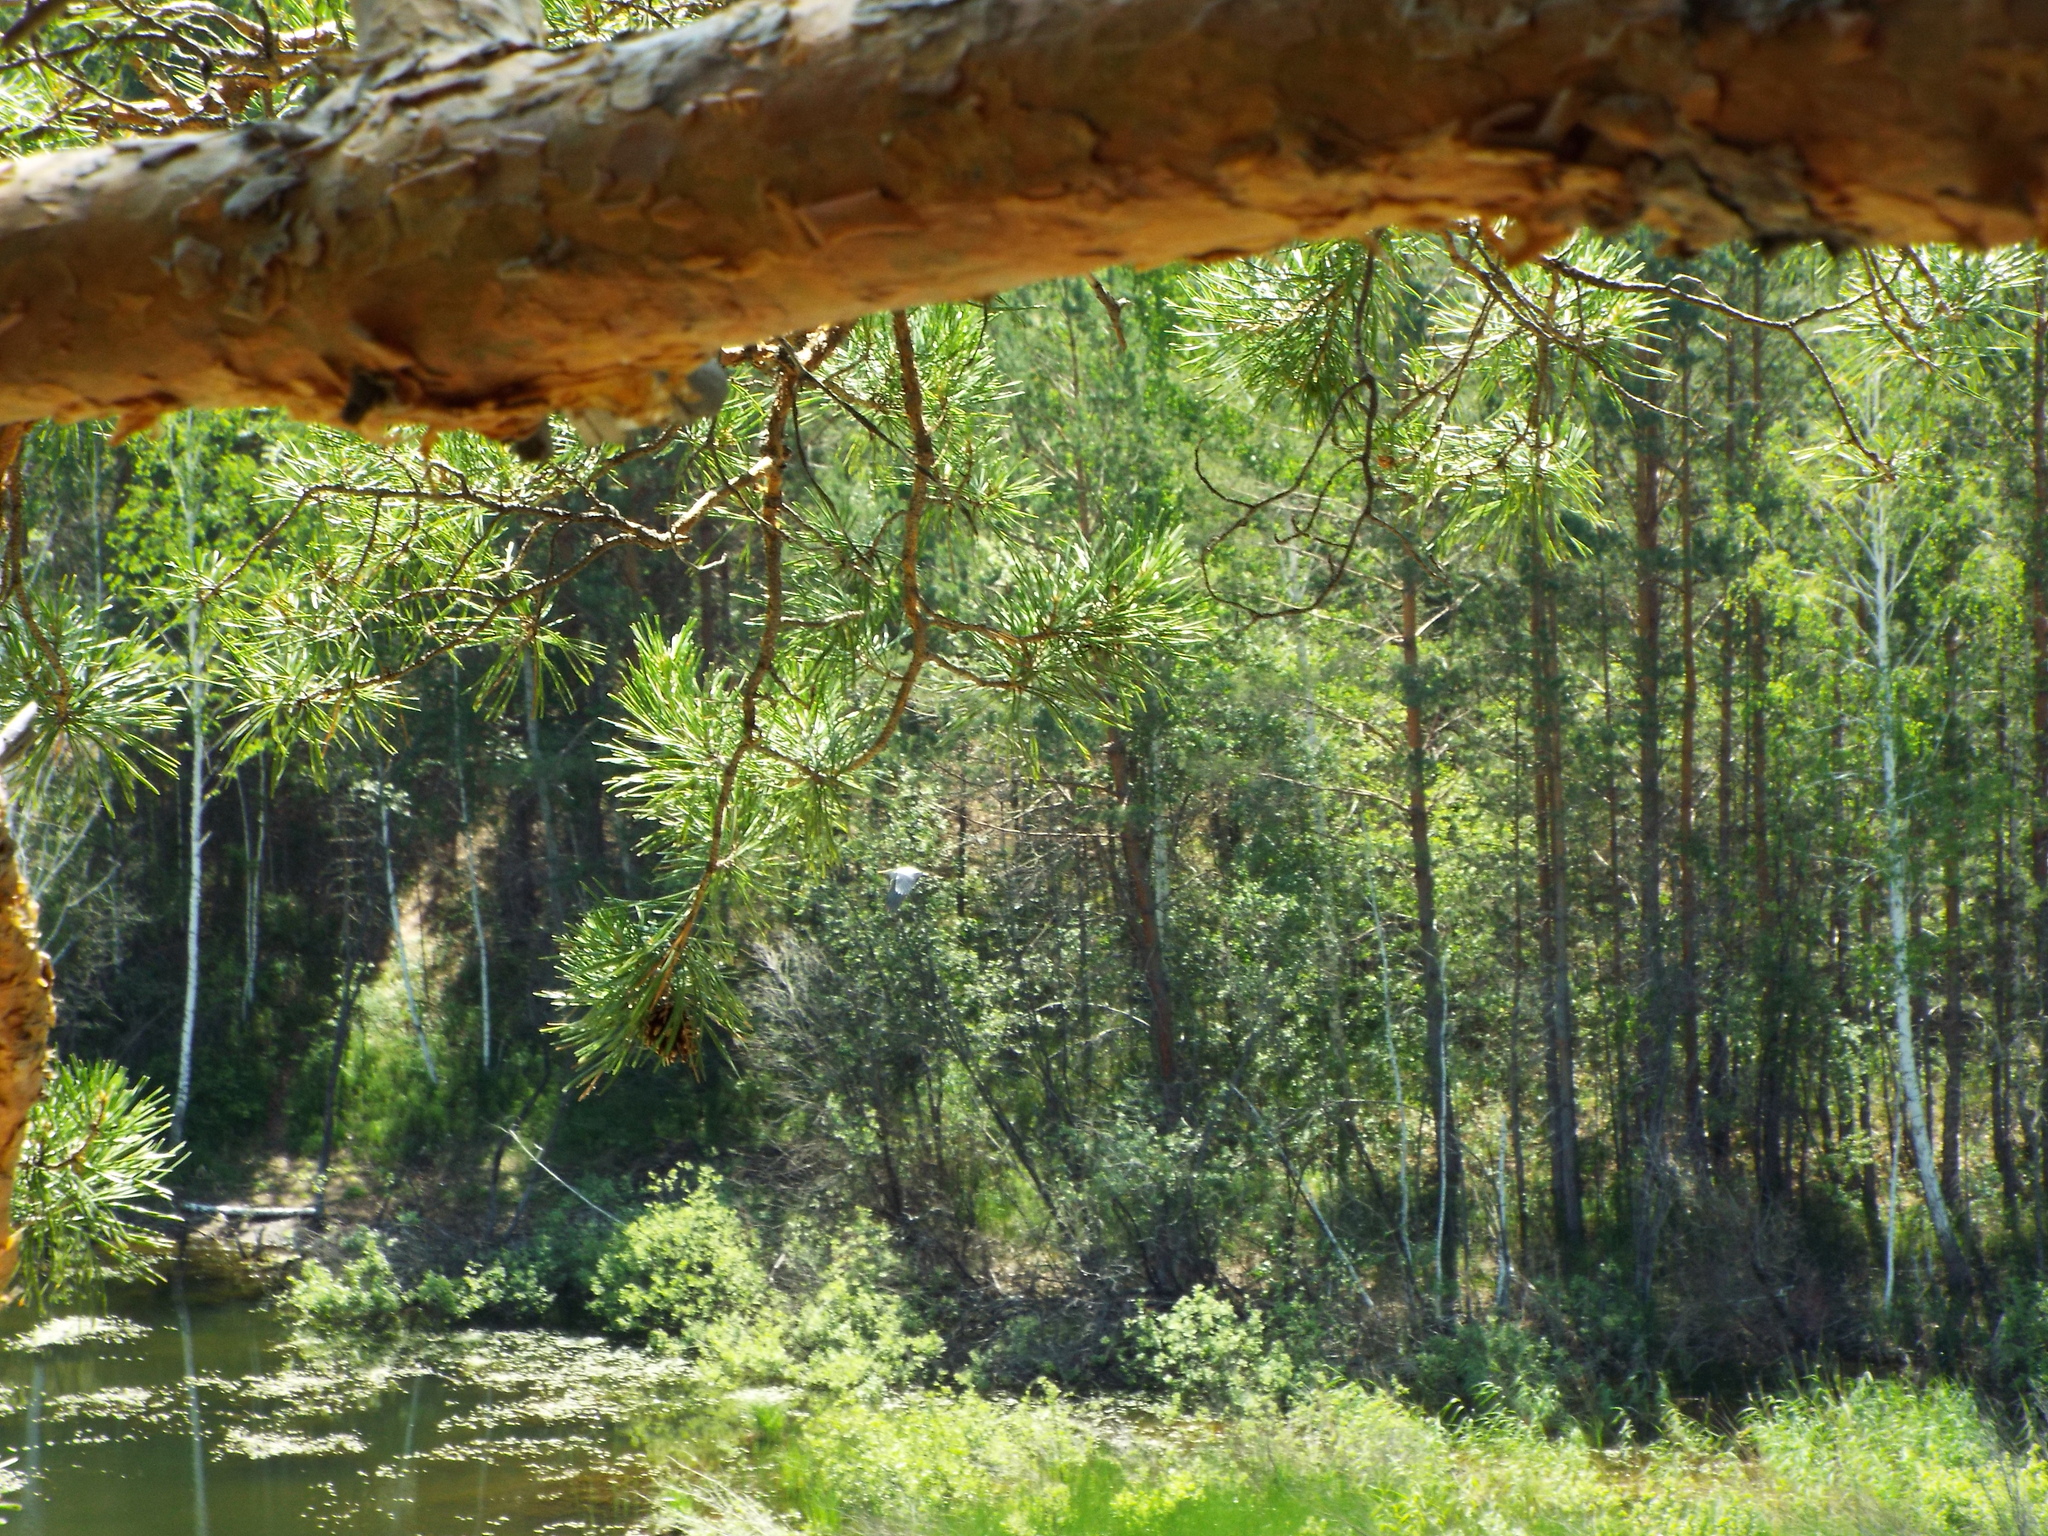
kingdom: Plantae
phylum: Tracheophyta
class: Pinopsida
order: Pinales
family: Pinaceae
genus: Pinus
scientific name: Pinus sylvestris
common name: Scots pine
